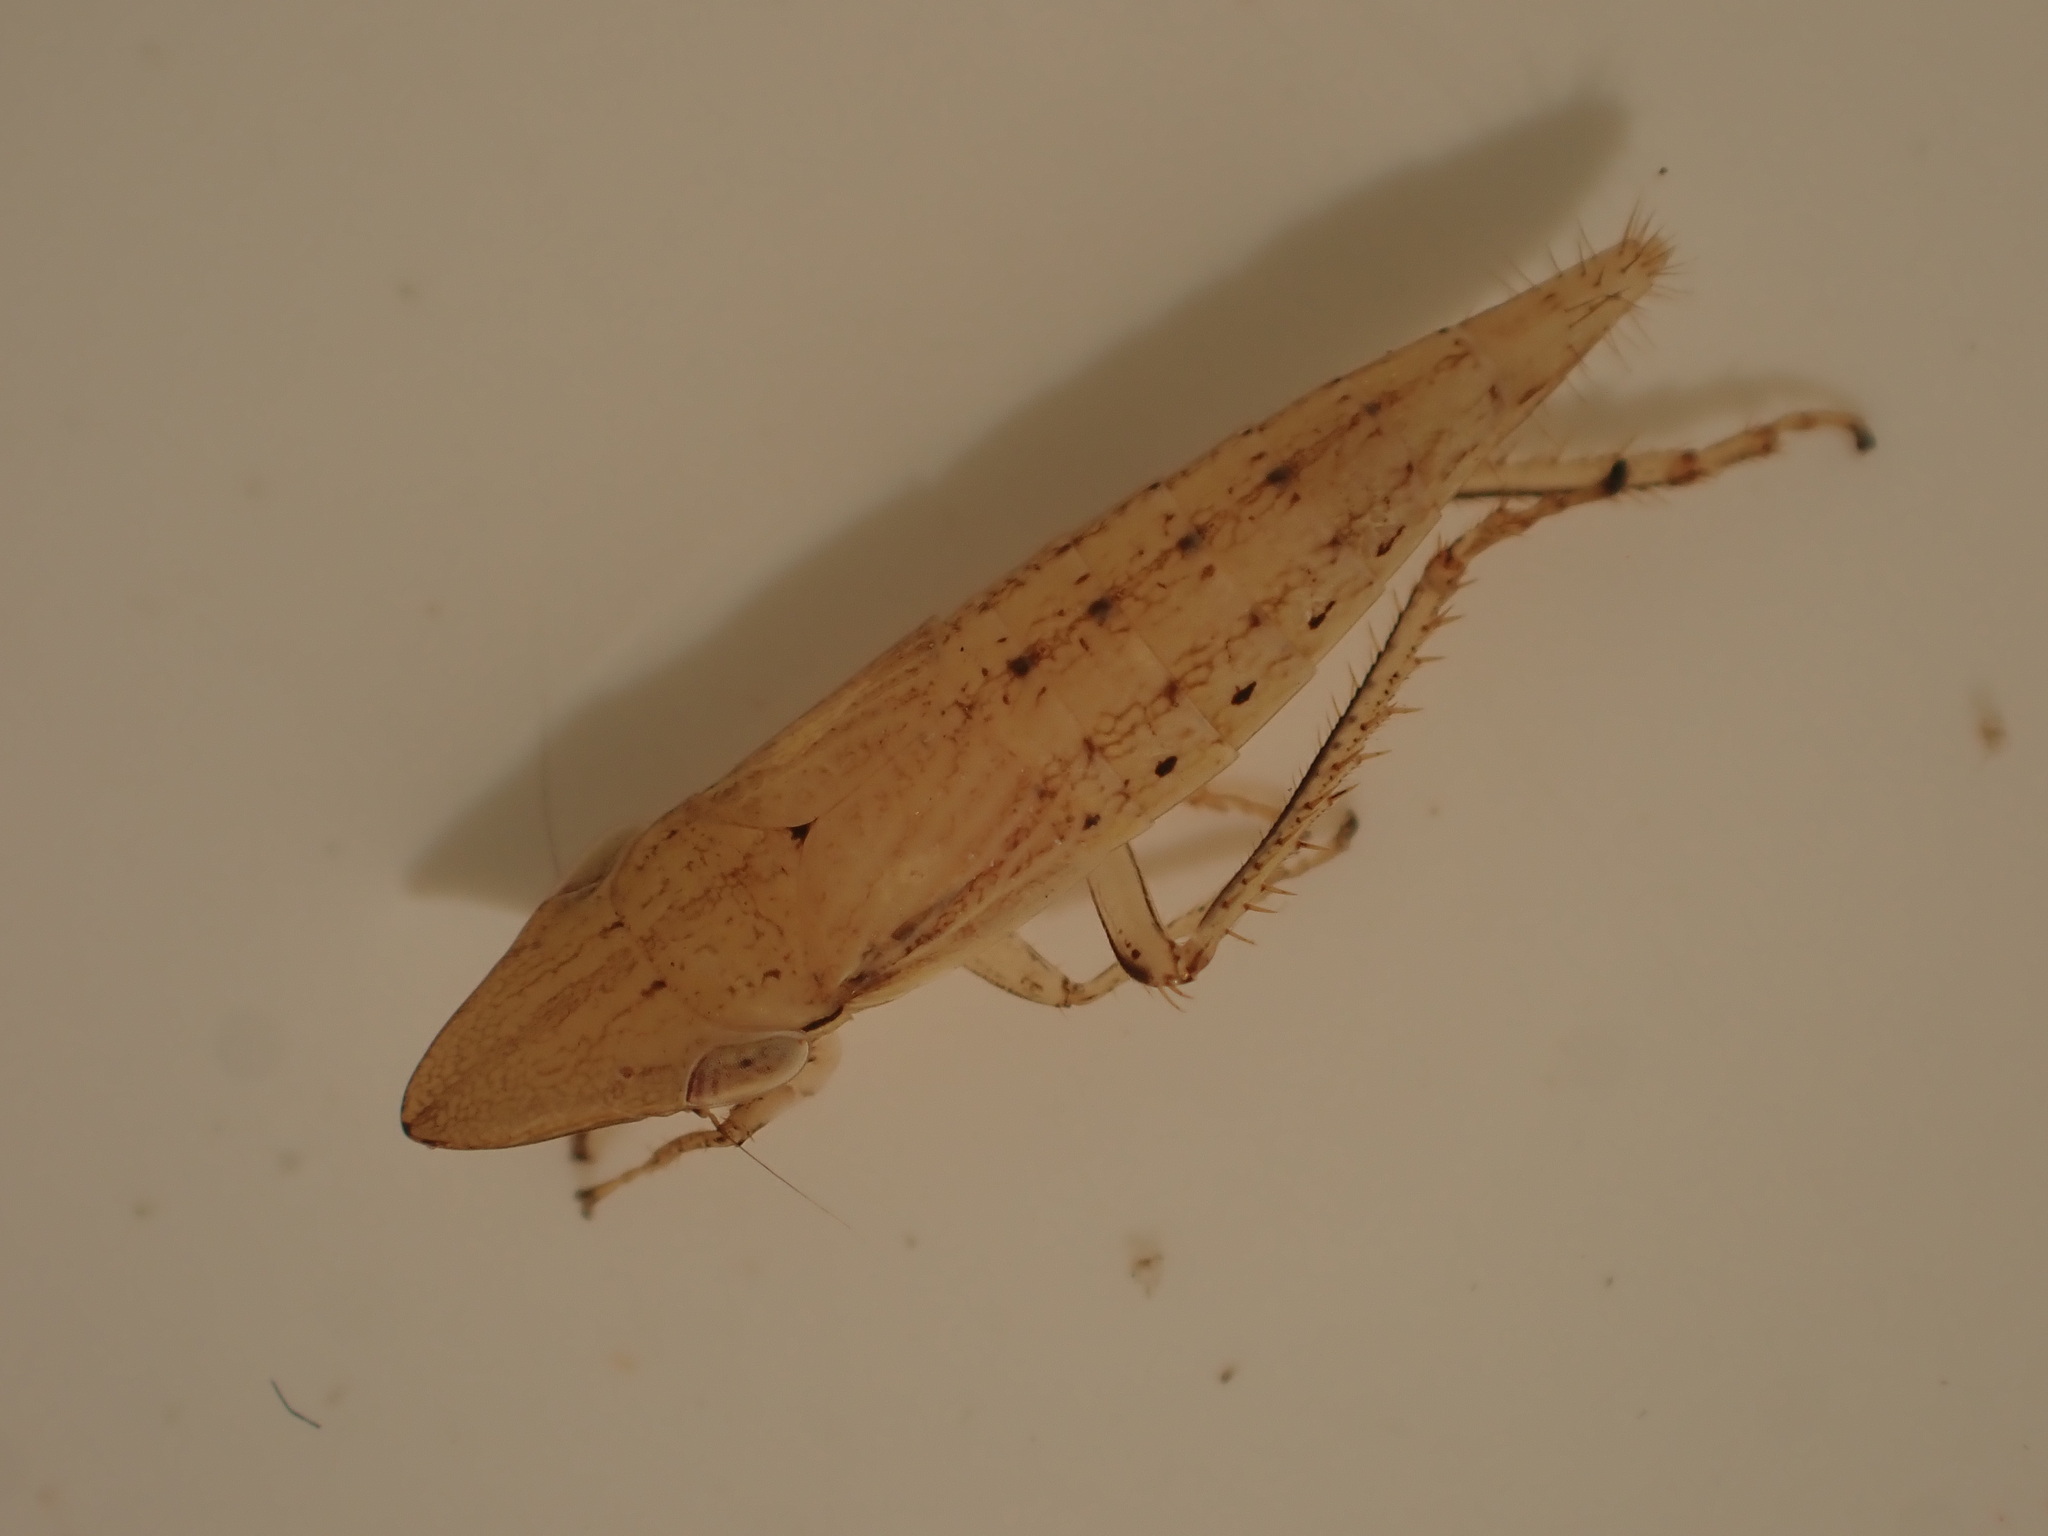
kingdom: Animalia
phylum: Arthropoda
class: Insecta
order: Hemiptera
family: Cicadellidae
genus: Euacanthella
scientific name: Euacanthella palustris
